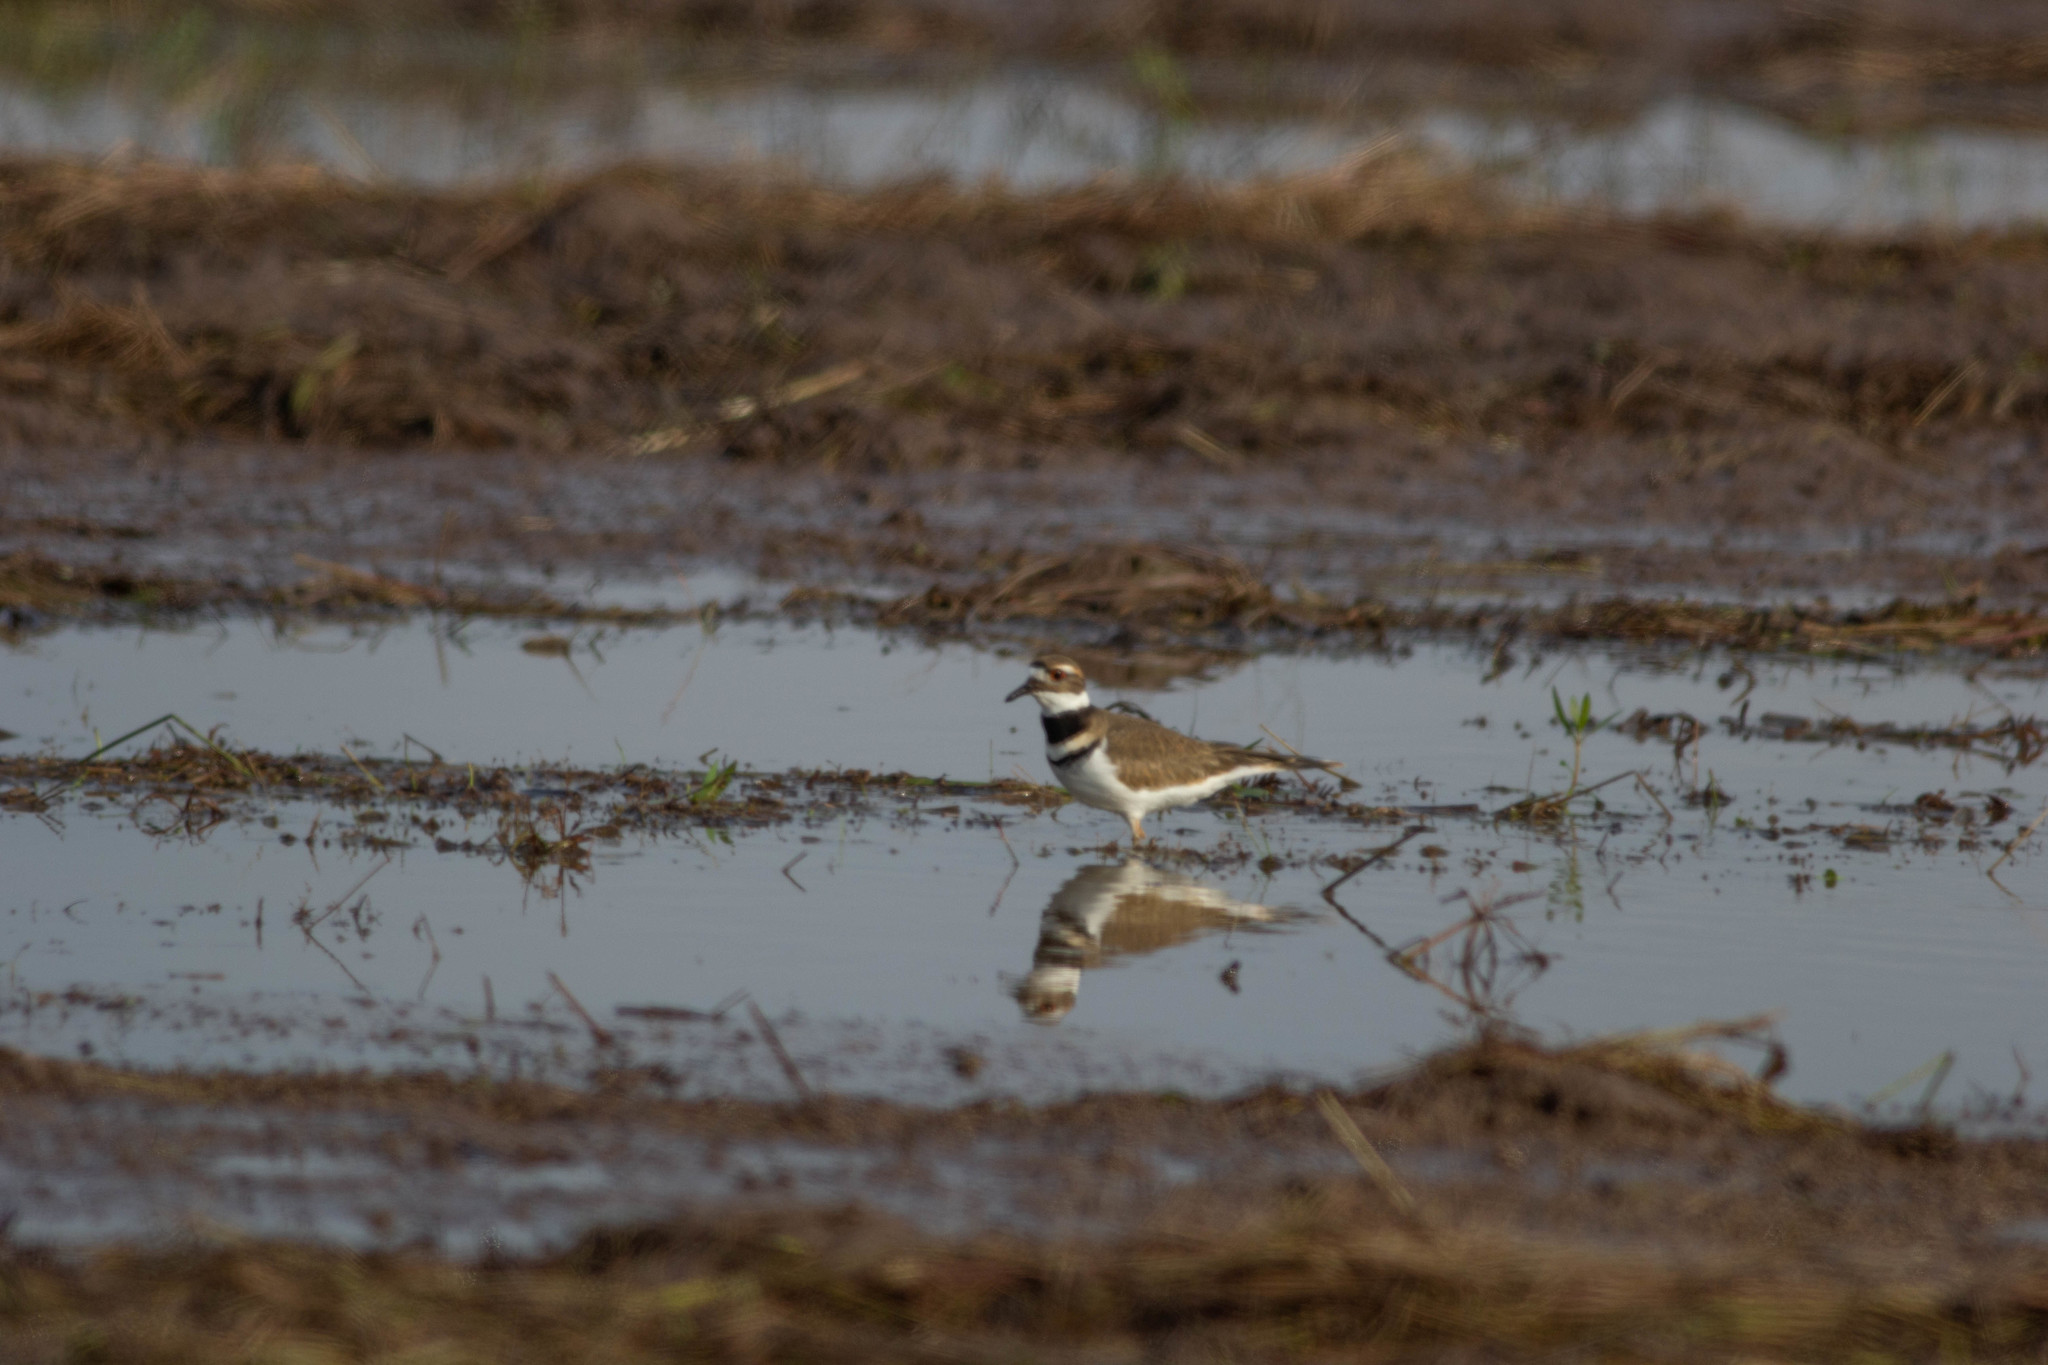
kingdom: Animalia
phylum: Chordata
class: Aves
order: Charadriiformes
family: Charadriidae
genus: Charadrius
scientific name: Charadrius vociferus
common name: Killdeer
